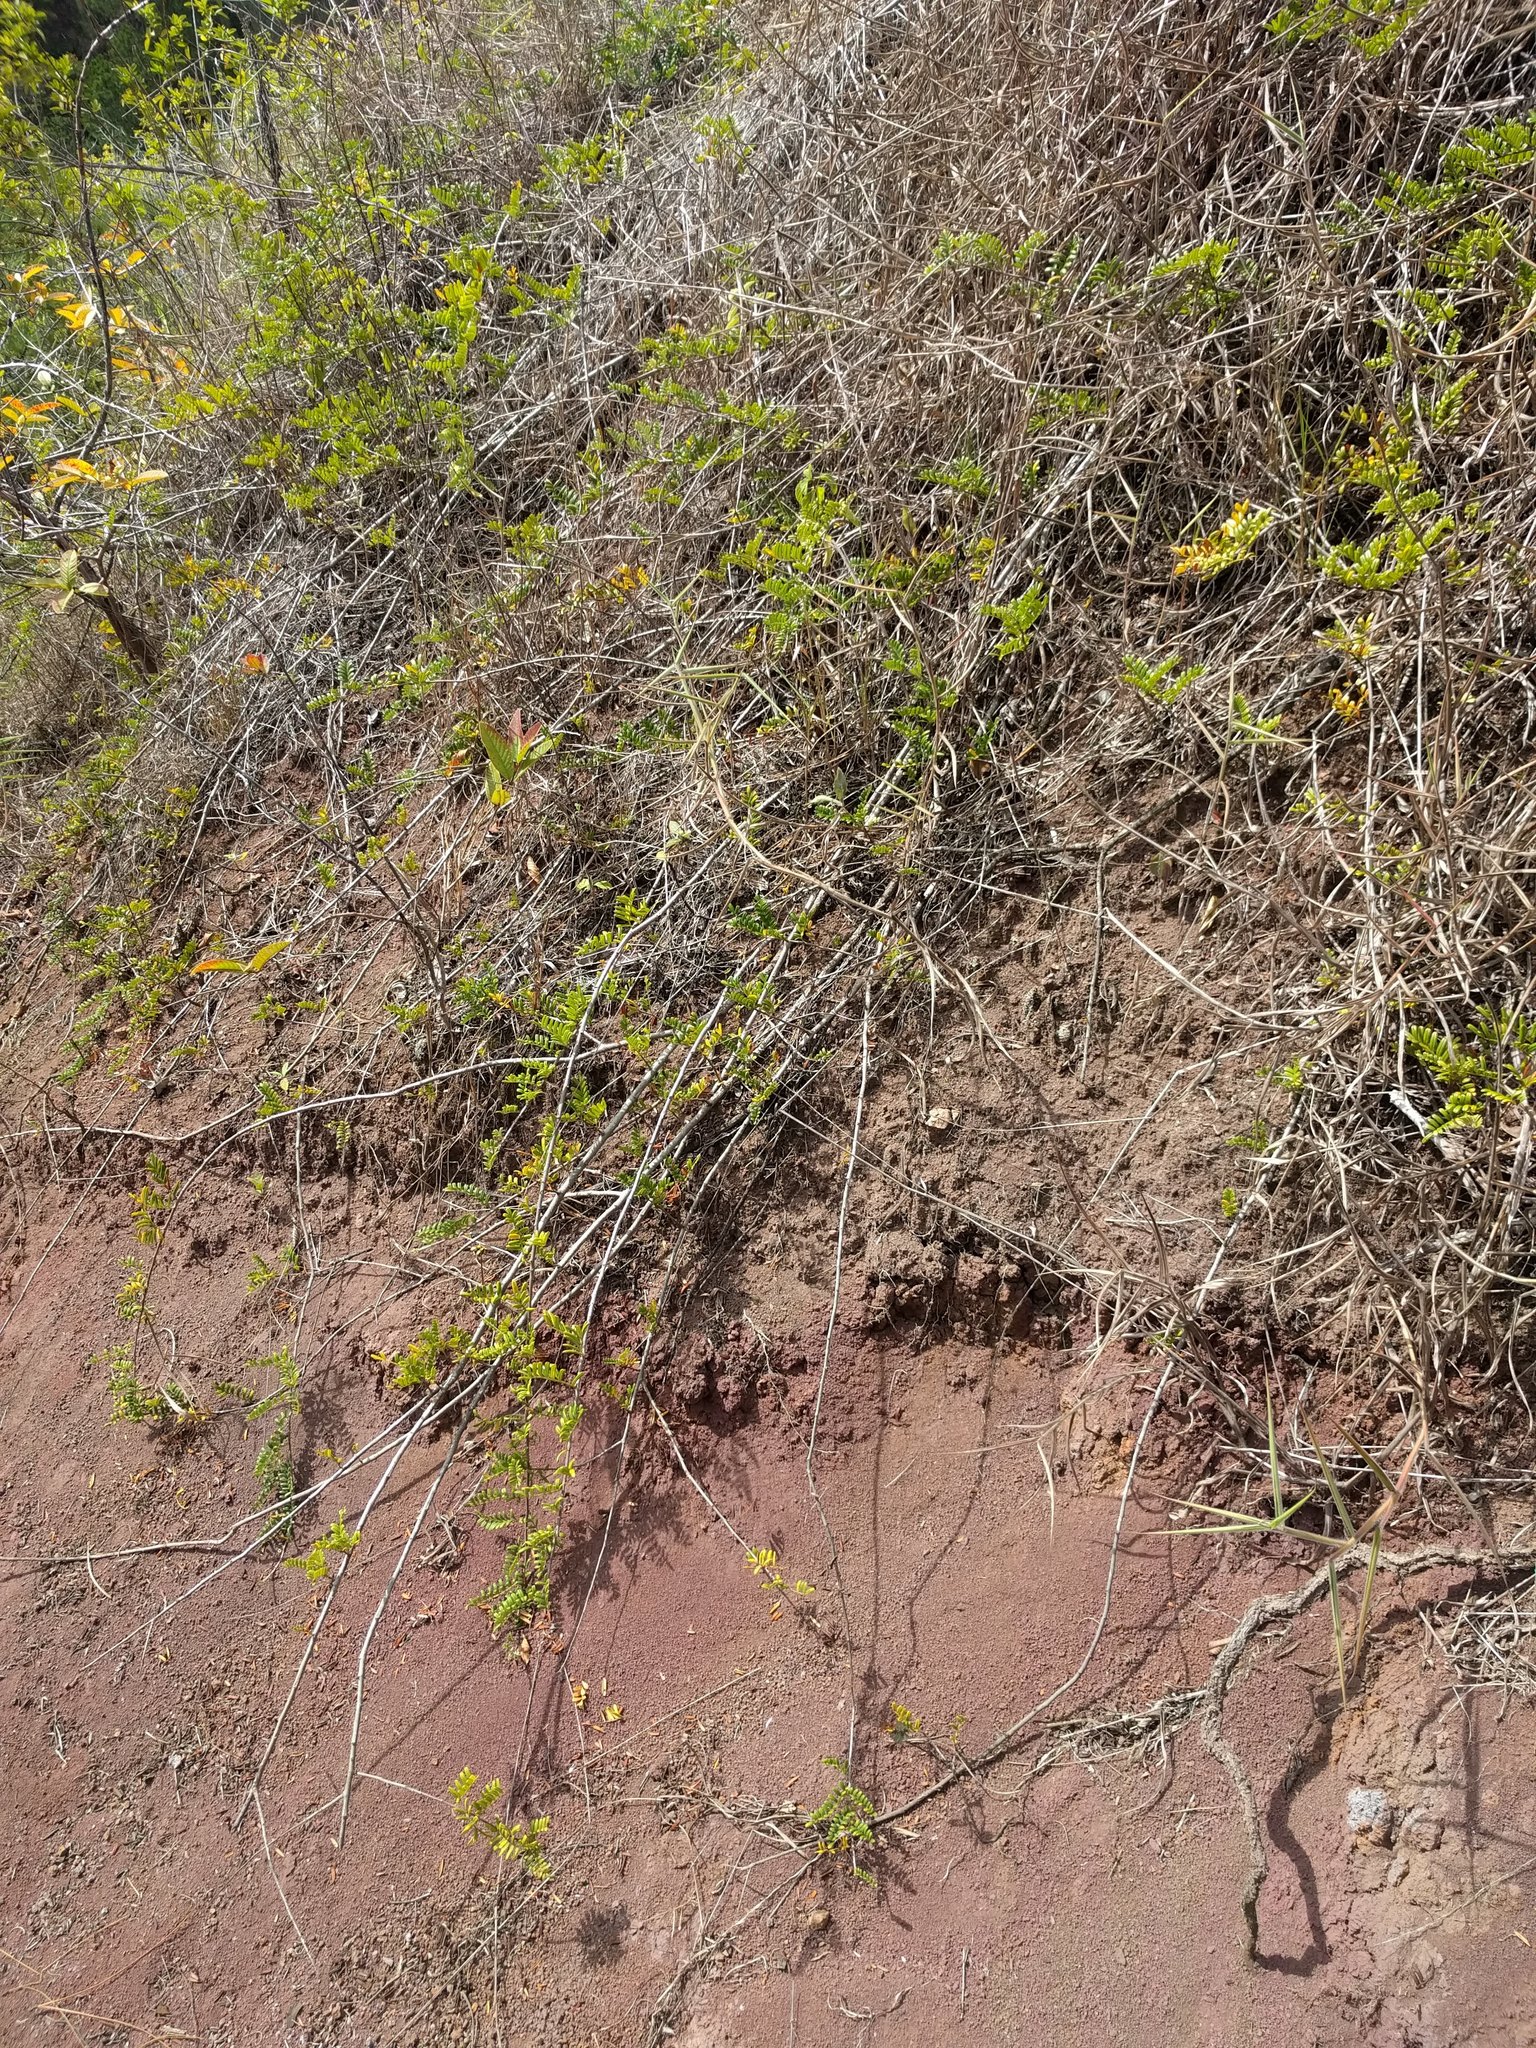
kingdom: Plantae
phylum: Tracheophyta
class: Magnoliopsida
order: Rosales
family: Rosaceae
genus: Osteomeles
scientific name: Osteomeles anthyllidifolia
